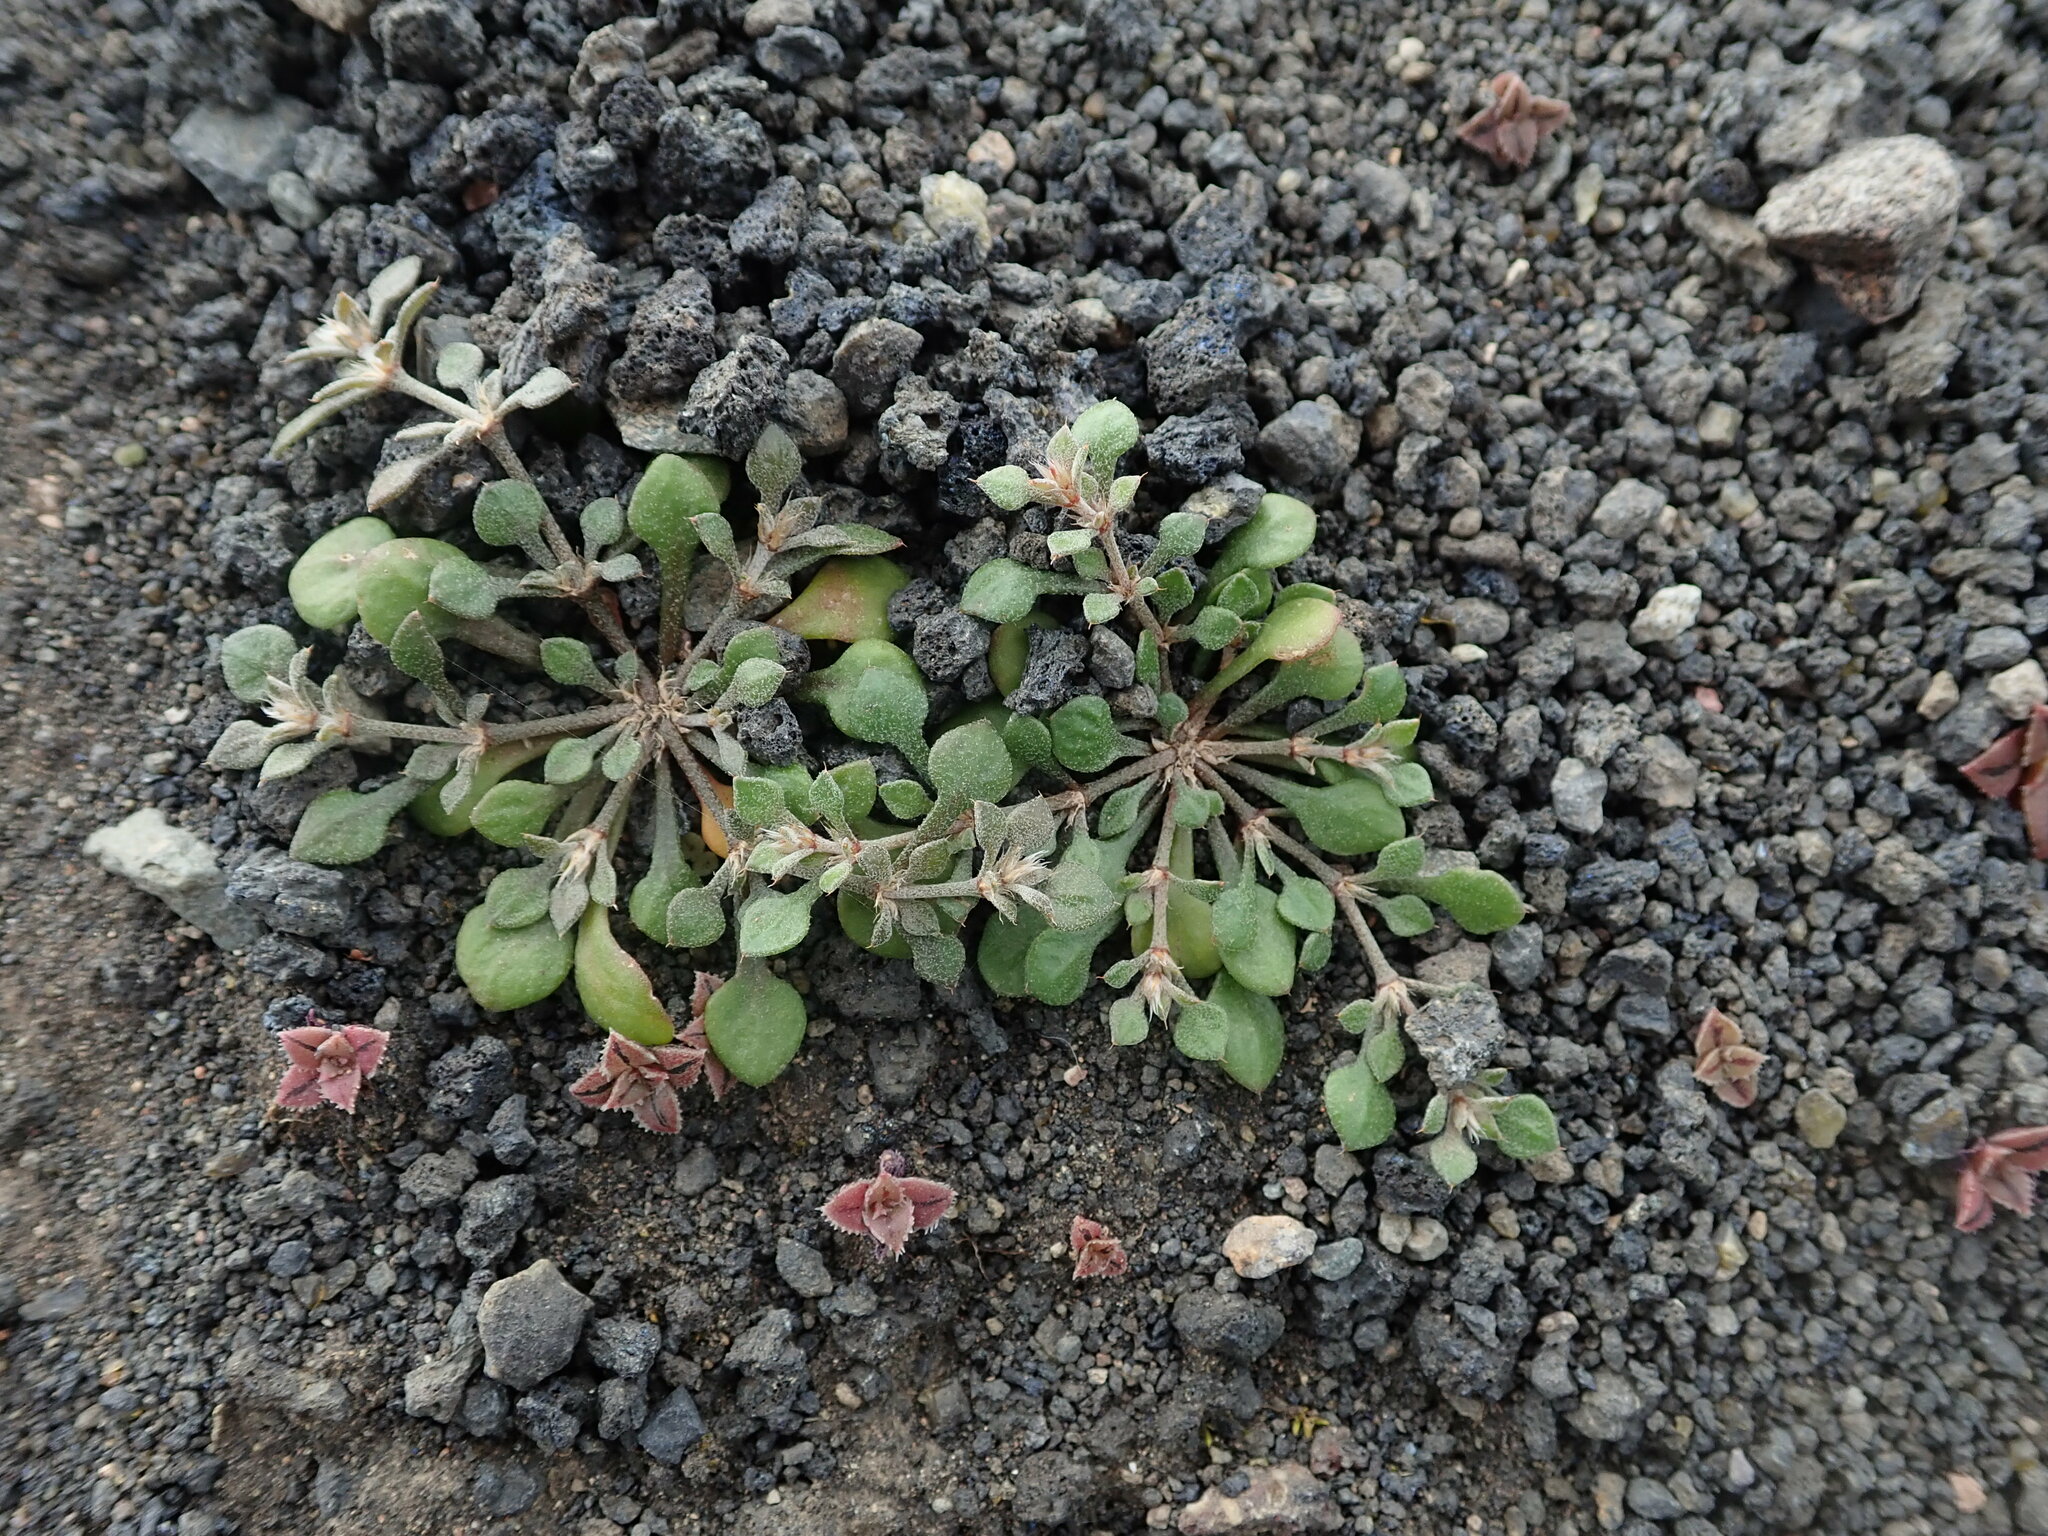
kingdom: Plantae
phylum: Tracheophyta
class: Magnoliopsida
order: Caryophyllales
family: Caryophyllaceae
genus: Polycarpaea
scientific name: Polycarpaea divaricata
